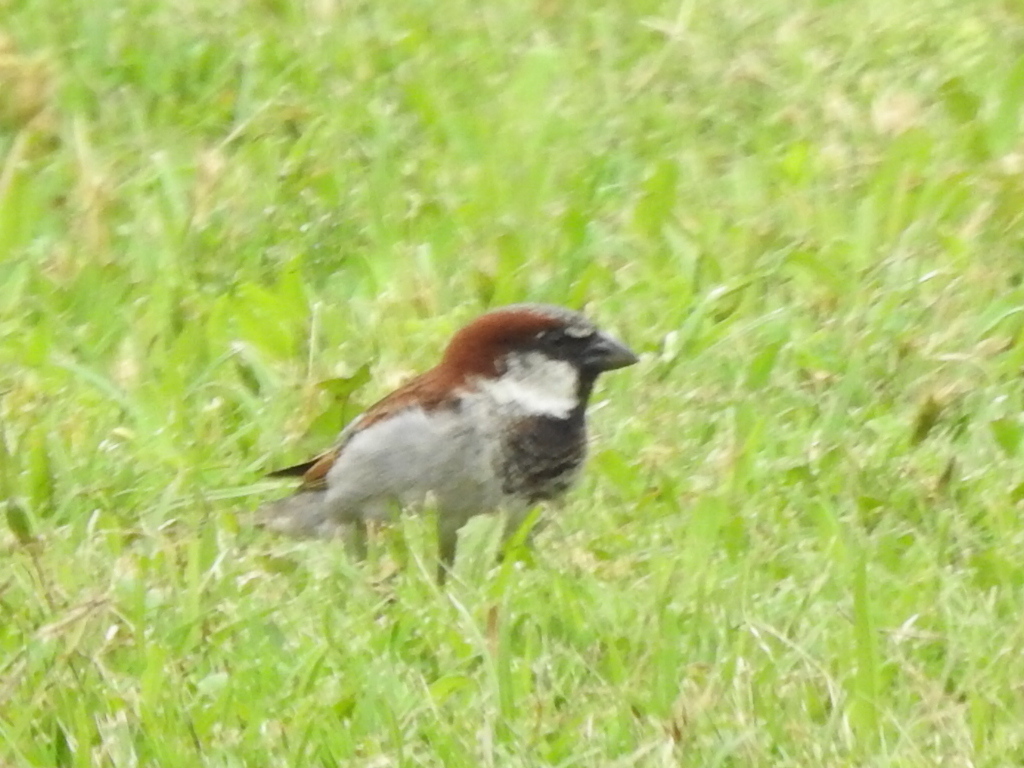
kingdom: Animalia
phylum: Chordata
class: Aves
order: Passeriformes
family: Passeridae
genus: Passer
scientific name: Passer domesticus
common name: House sparrow
